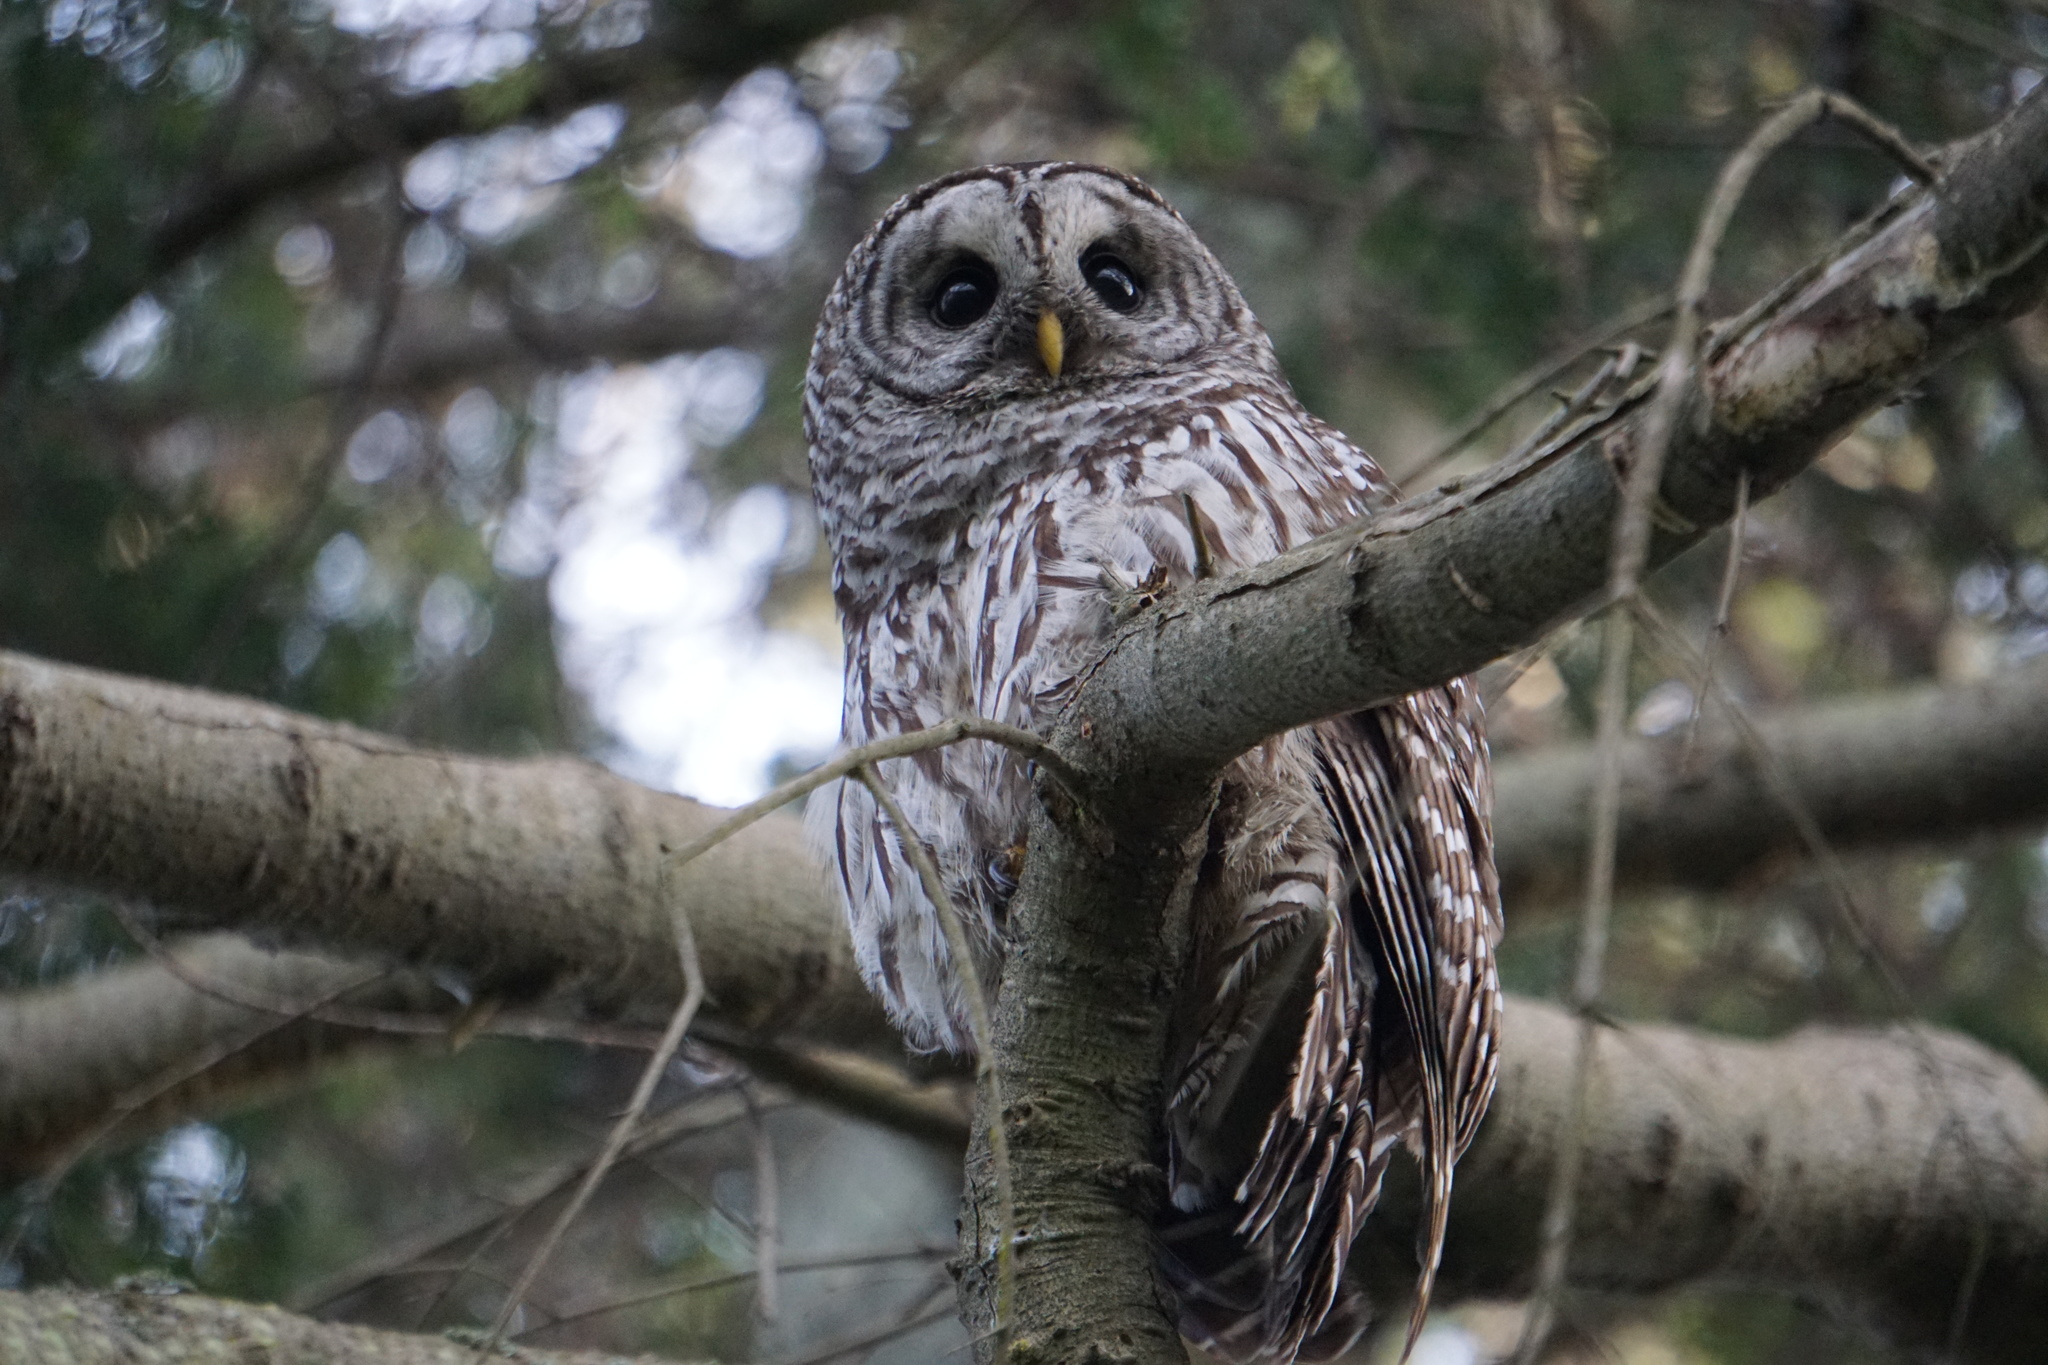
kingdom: Animalia
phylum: Chordata
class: Aves
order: Strigiformes
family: Strigidae
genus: Strix
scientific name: Strix varia
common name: Barred owl
